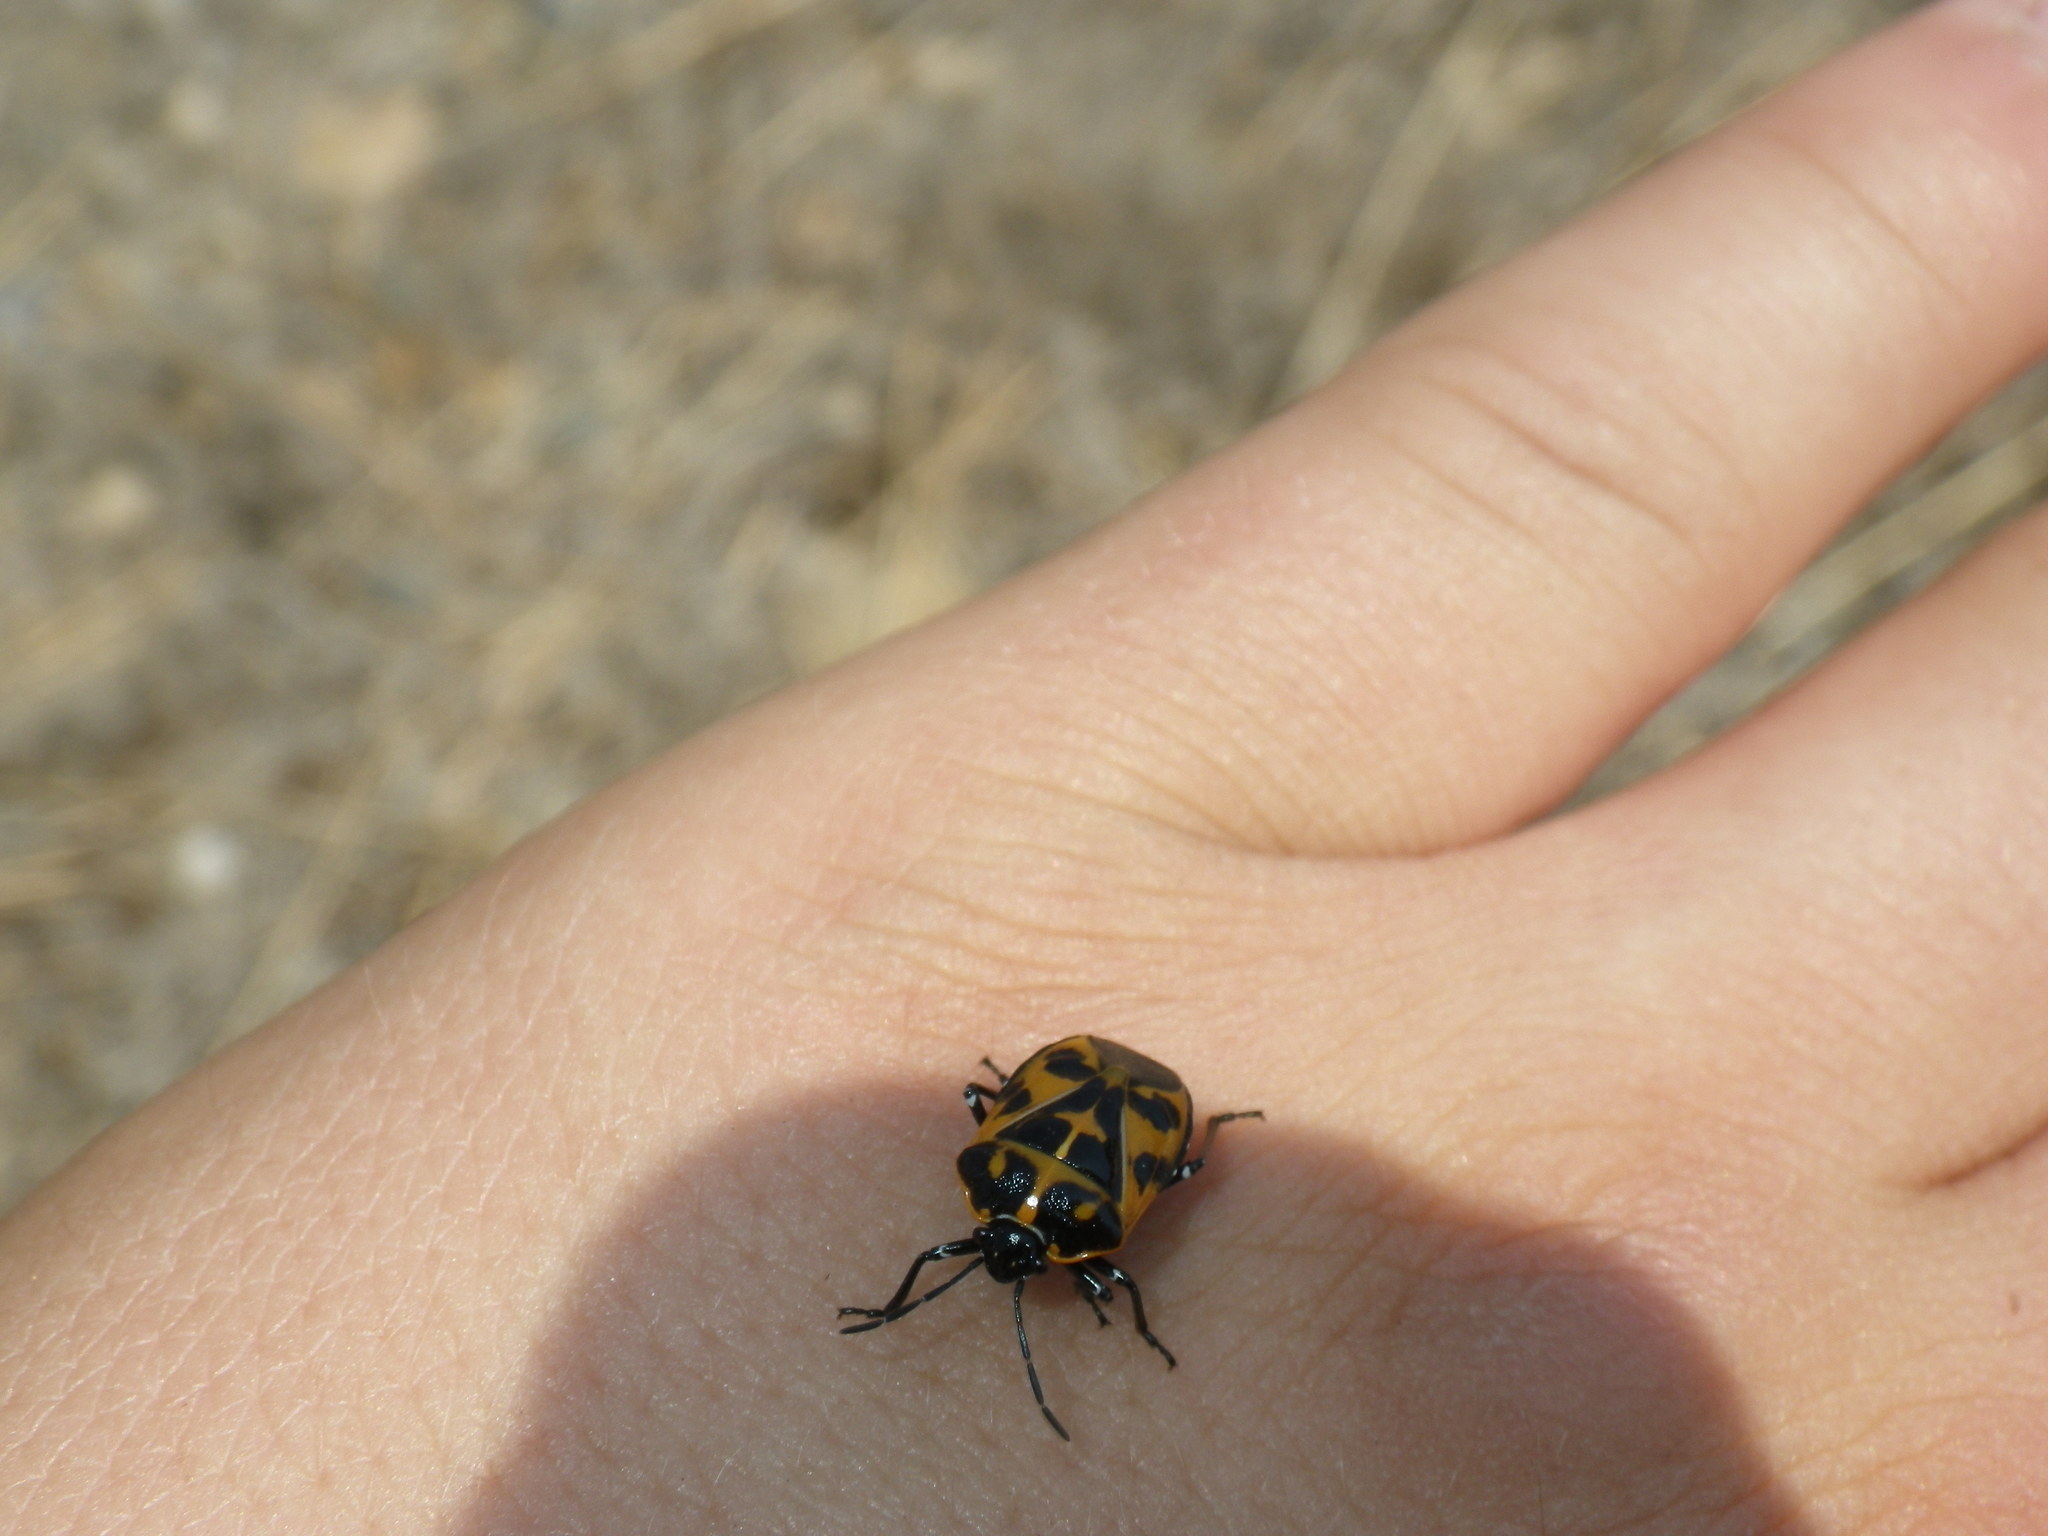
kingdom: Animalia
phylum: Arthropoda
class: Insecta
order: Hemiptera
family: Pentatomidae
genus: Murgantia
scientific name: Murgantia histrionica
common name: Harlequin bug
